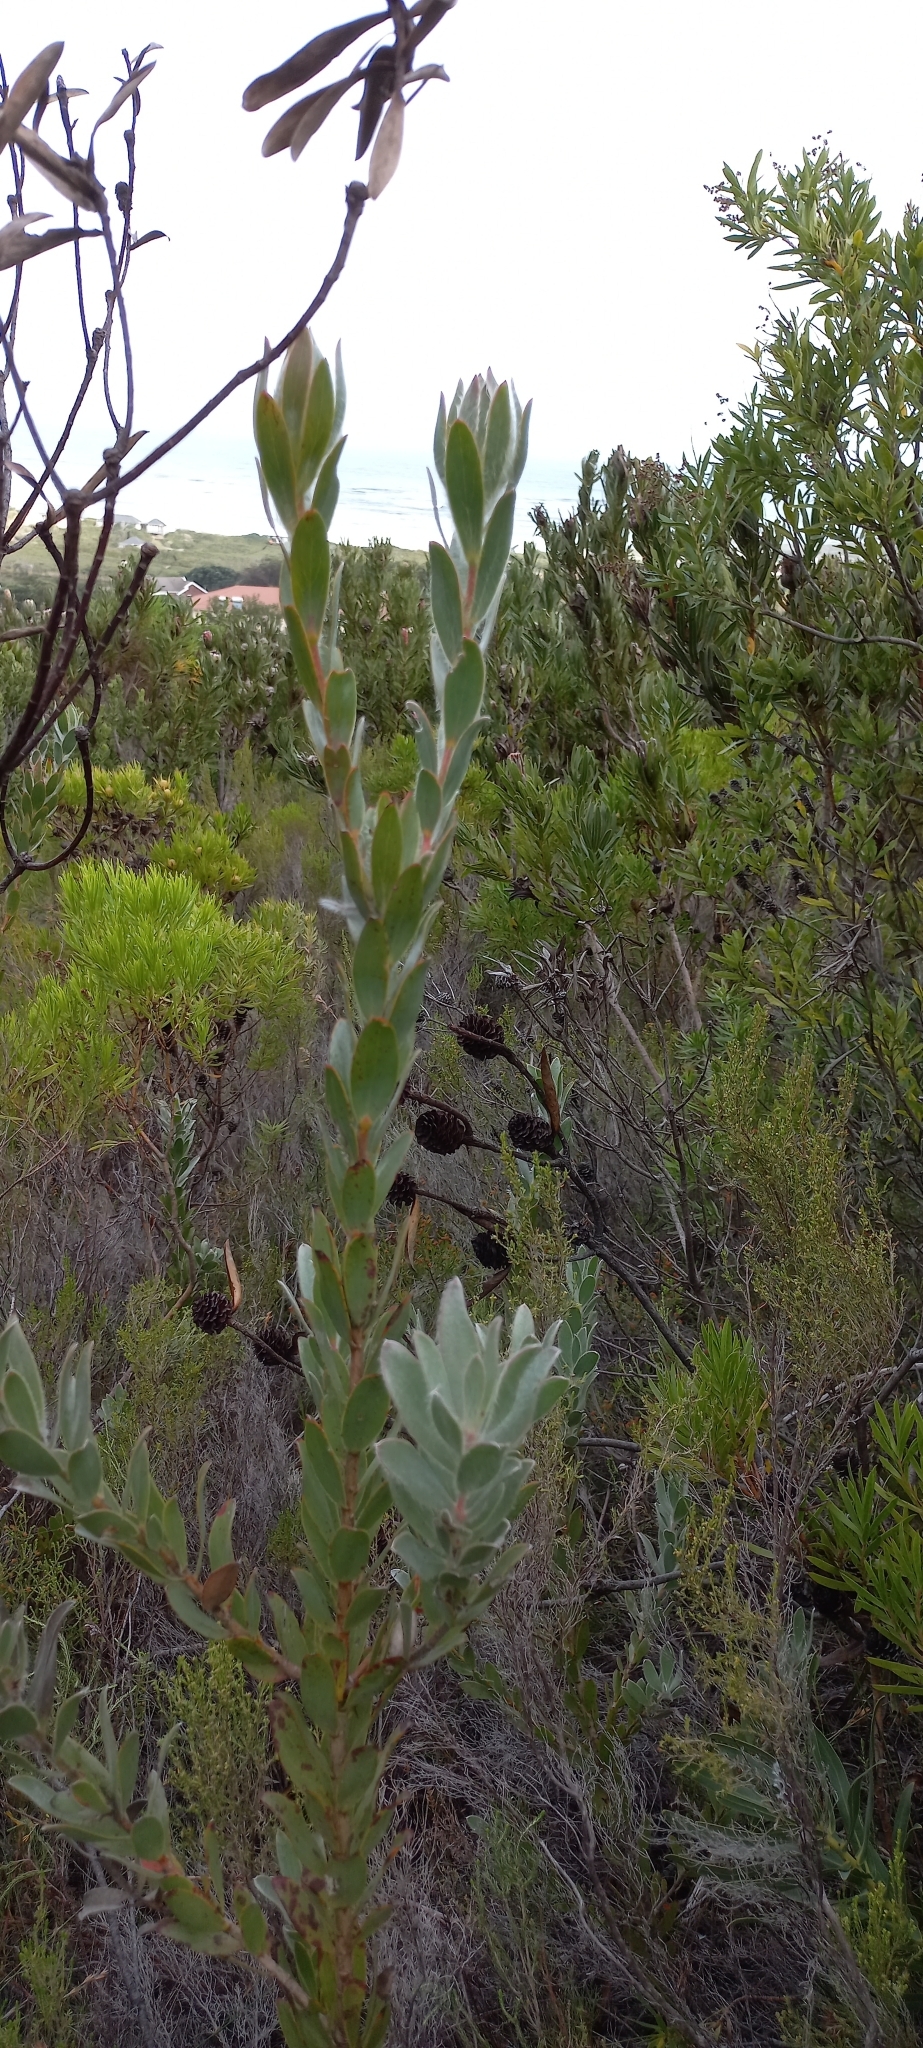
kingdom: Plantae
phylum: Tracheophyta
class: Magnoliopsida
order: Proteales
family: Proteaceae
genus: Leucadendron
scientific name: Leucadendron nervosum
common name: Silky-ruff conebush
